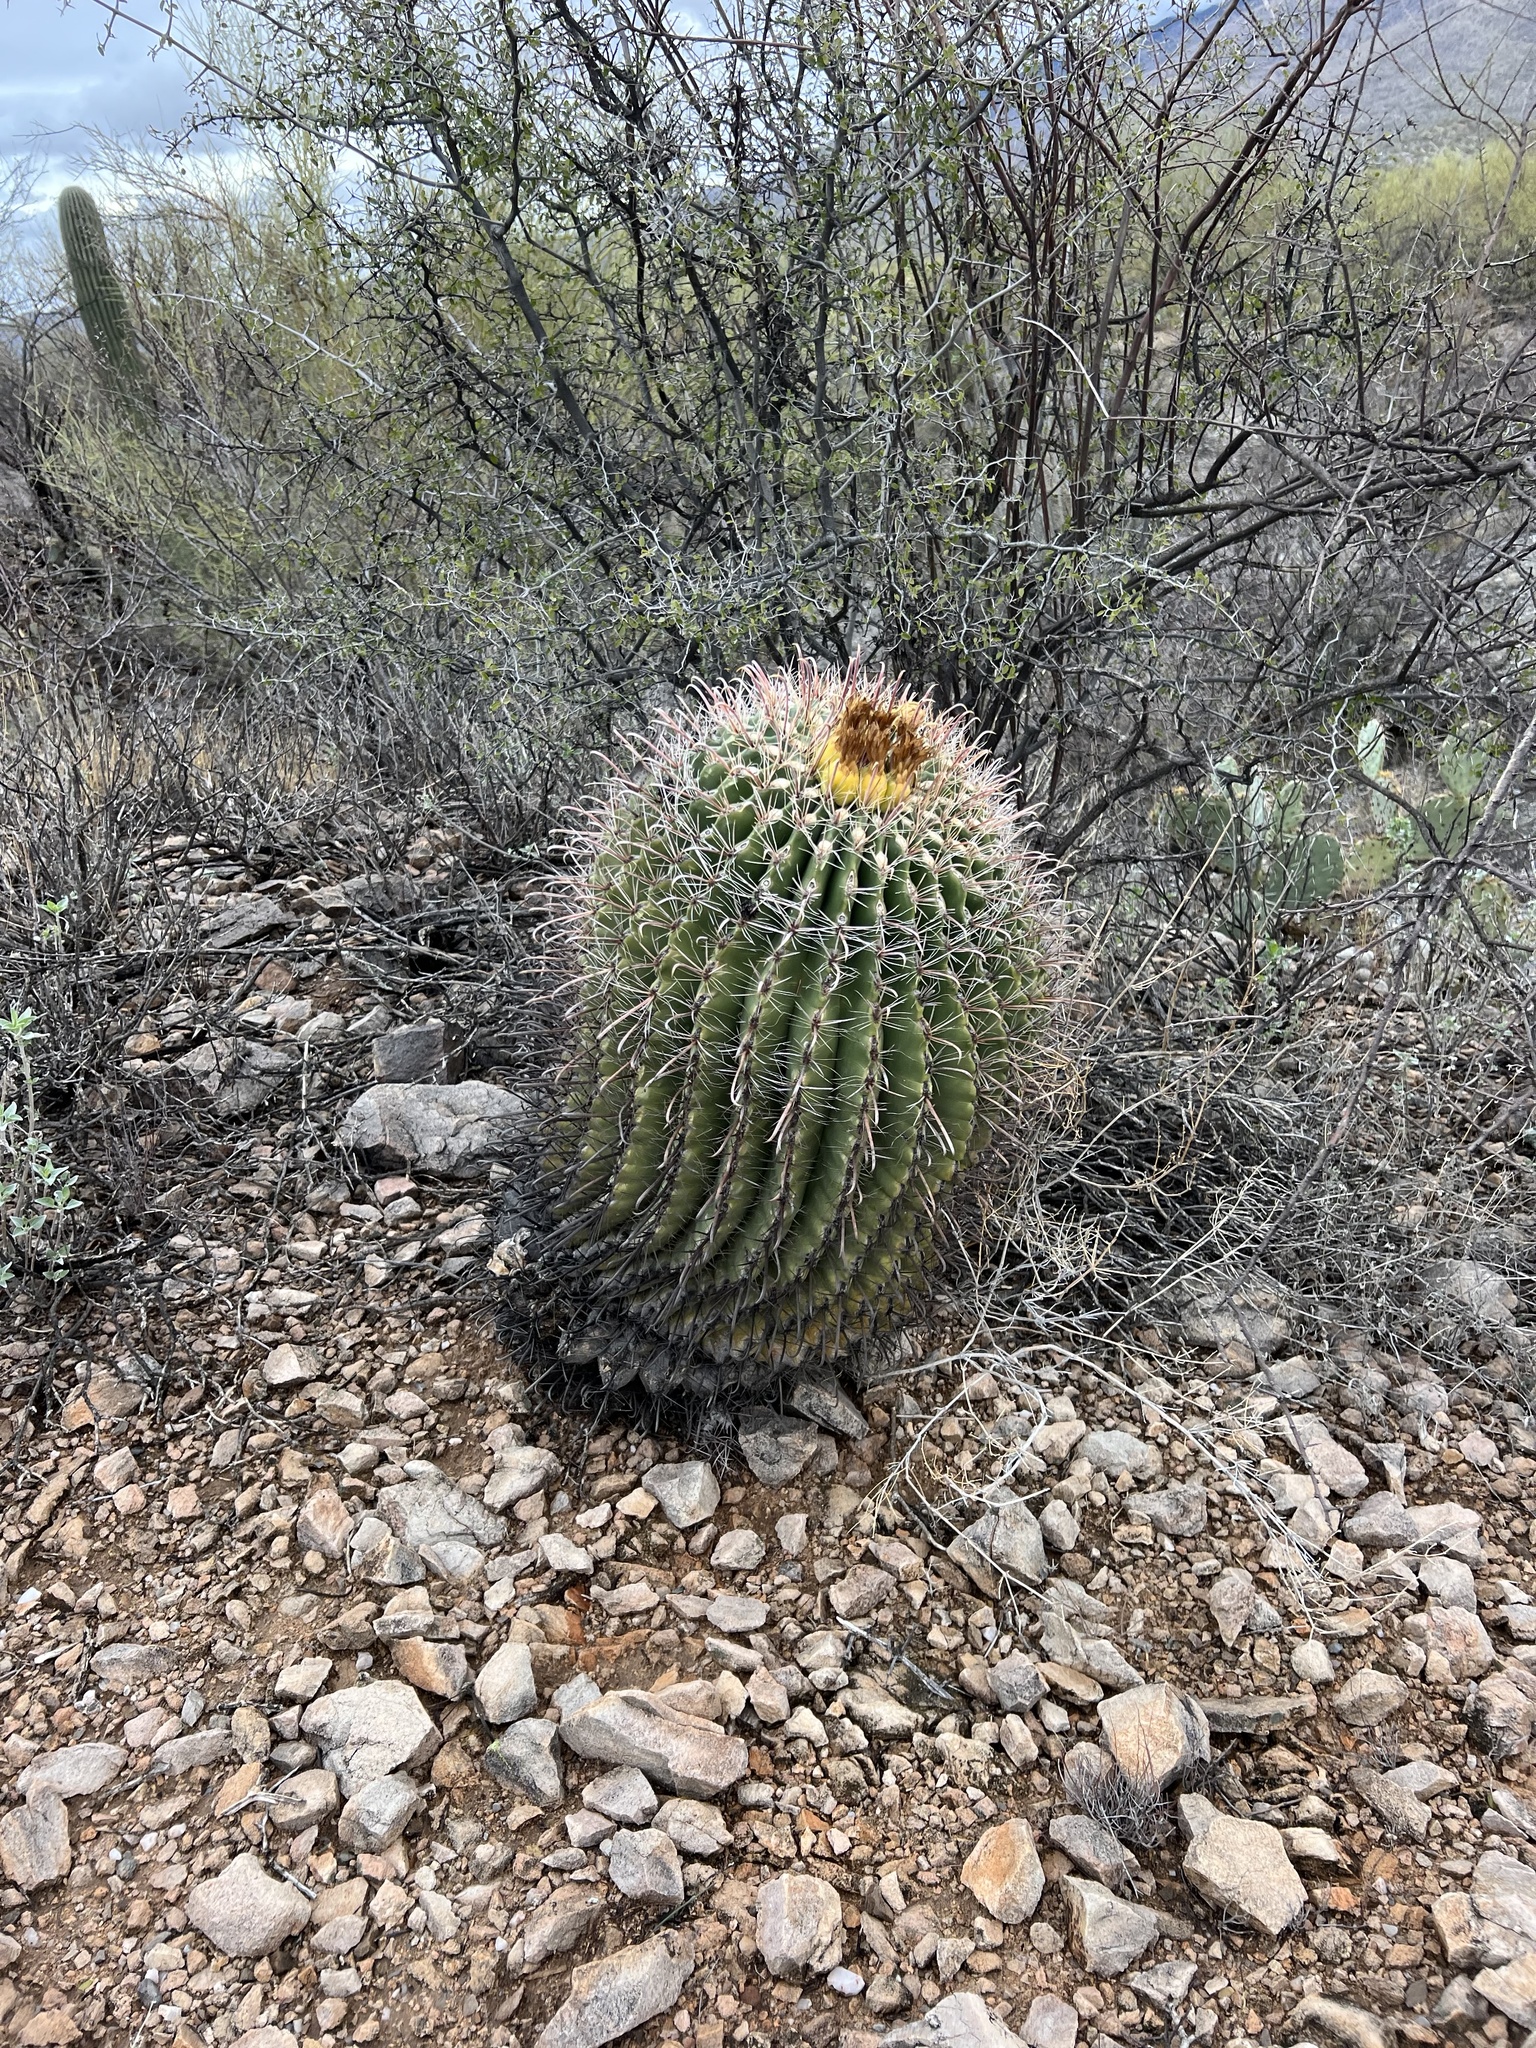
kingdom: Plantae
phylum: Tracheophyta
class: Magnoliopsida
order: Caryophyllales
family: Cactaceae
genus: Ferocactus
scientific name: Ferocactus wislizeni
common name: Candy barrel cactus
